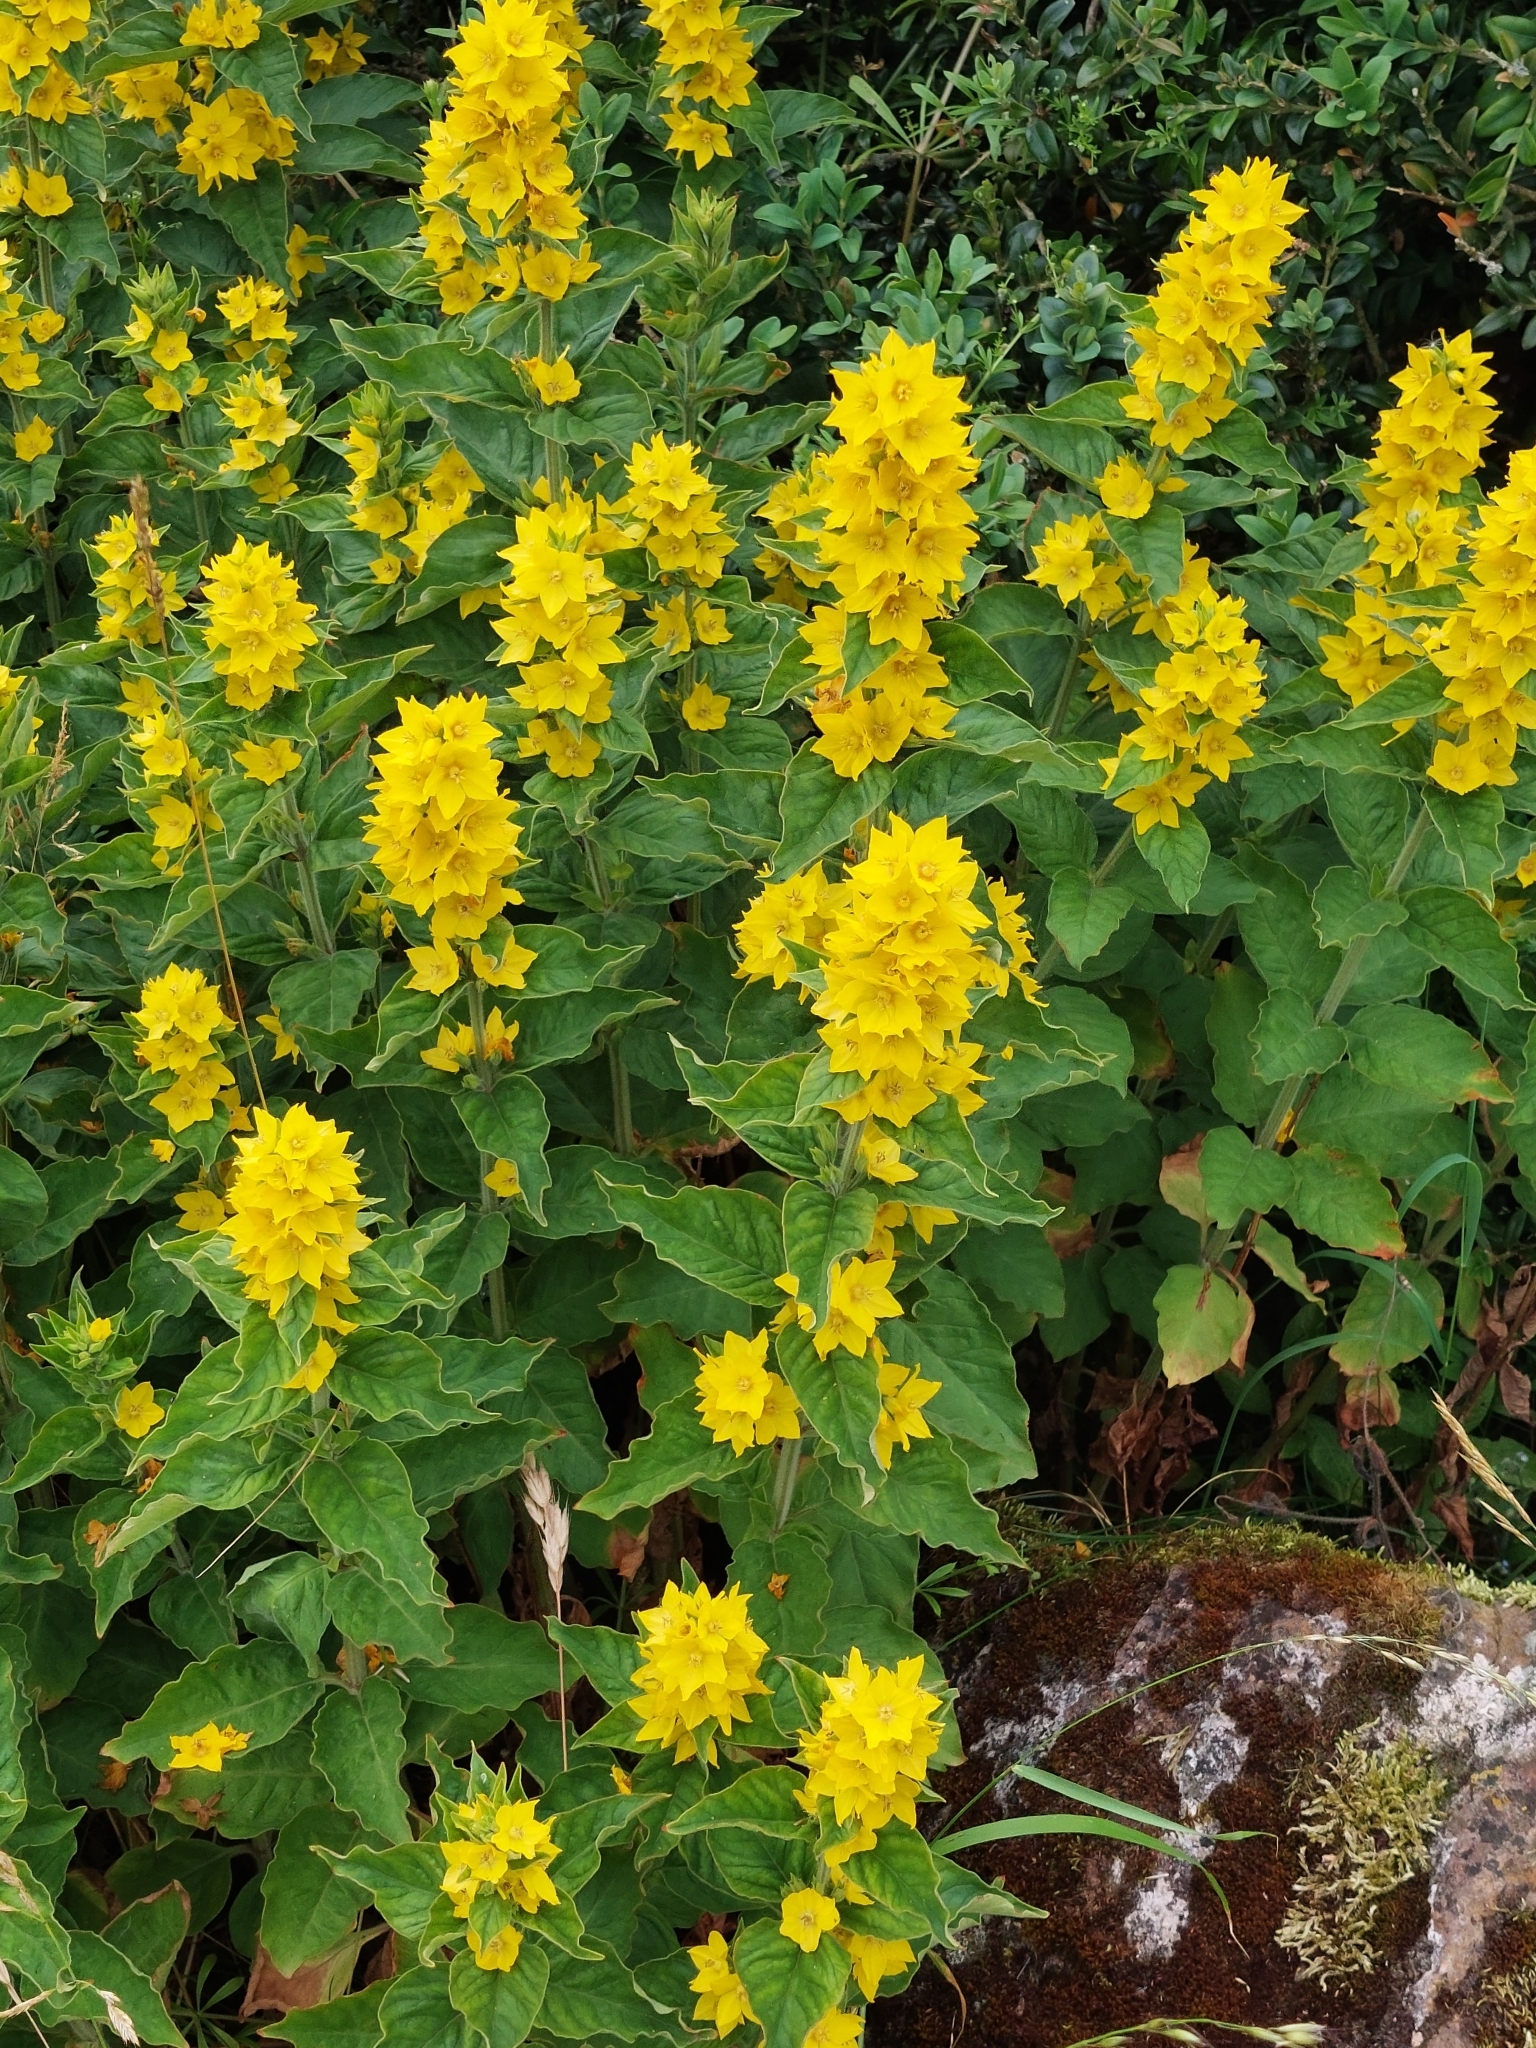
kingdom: Plantae
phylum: Tracheophyta
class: Magnoliopsida
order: Ericales
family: Primulaceae
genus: Lysimachia
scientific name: Lysimachia punctata
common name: Dotted loosestrife
